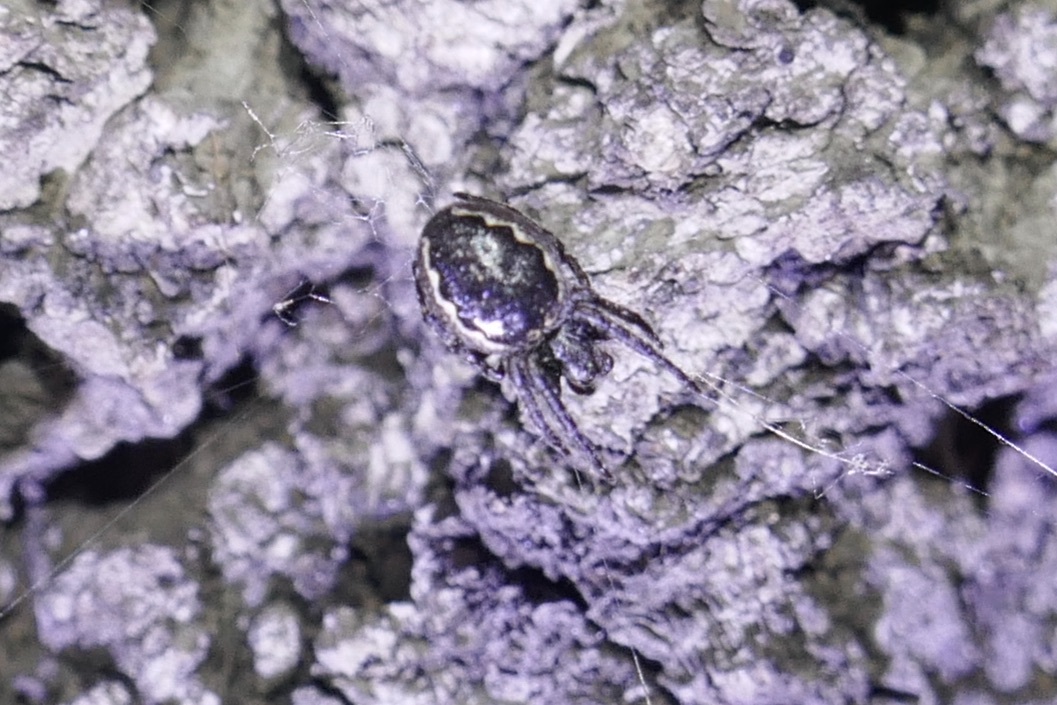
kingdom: Animalia
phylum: Arthropoda
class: Arachnida
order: Araneae
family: Araneidae
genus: Nuctenea
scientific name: Nuctenea umbratica
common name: Toad spider
